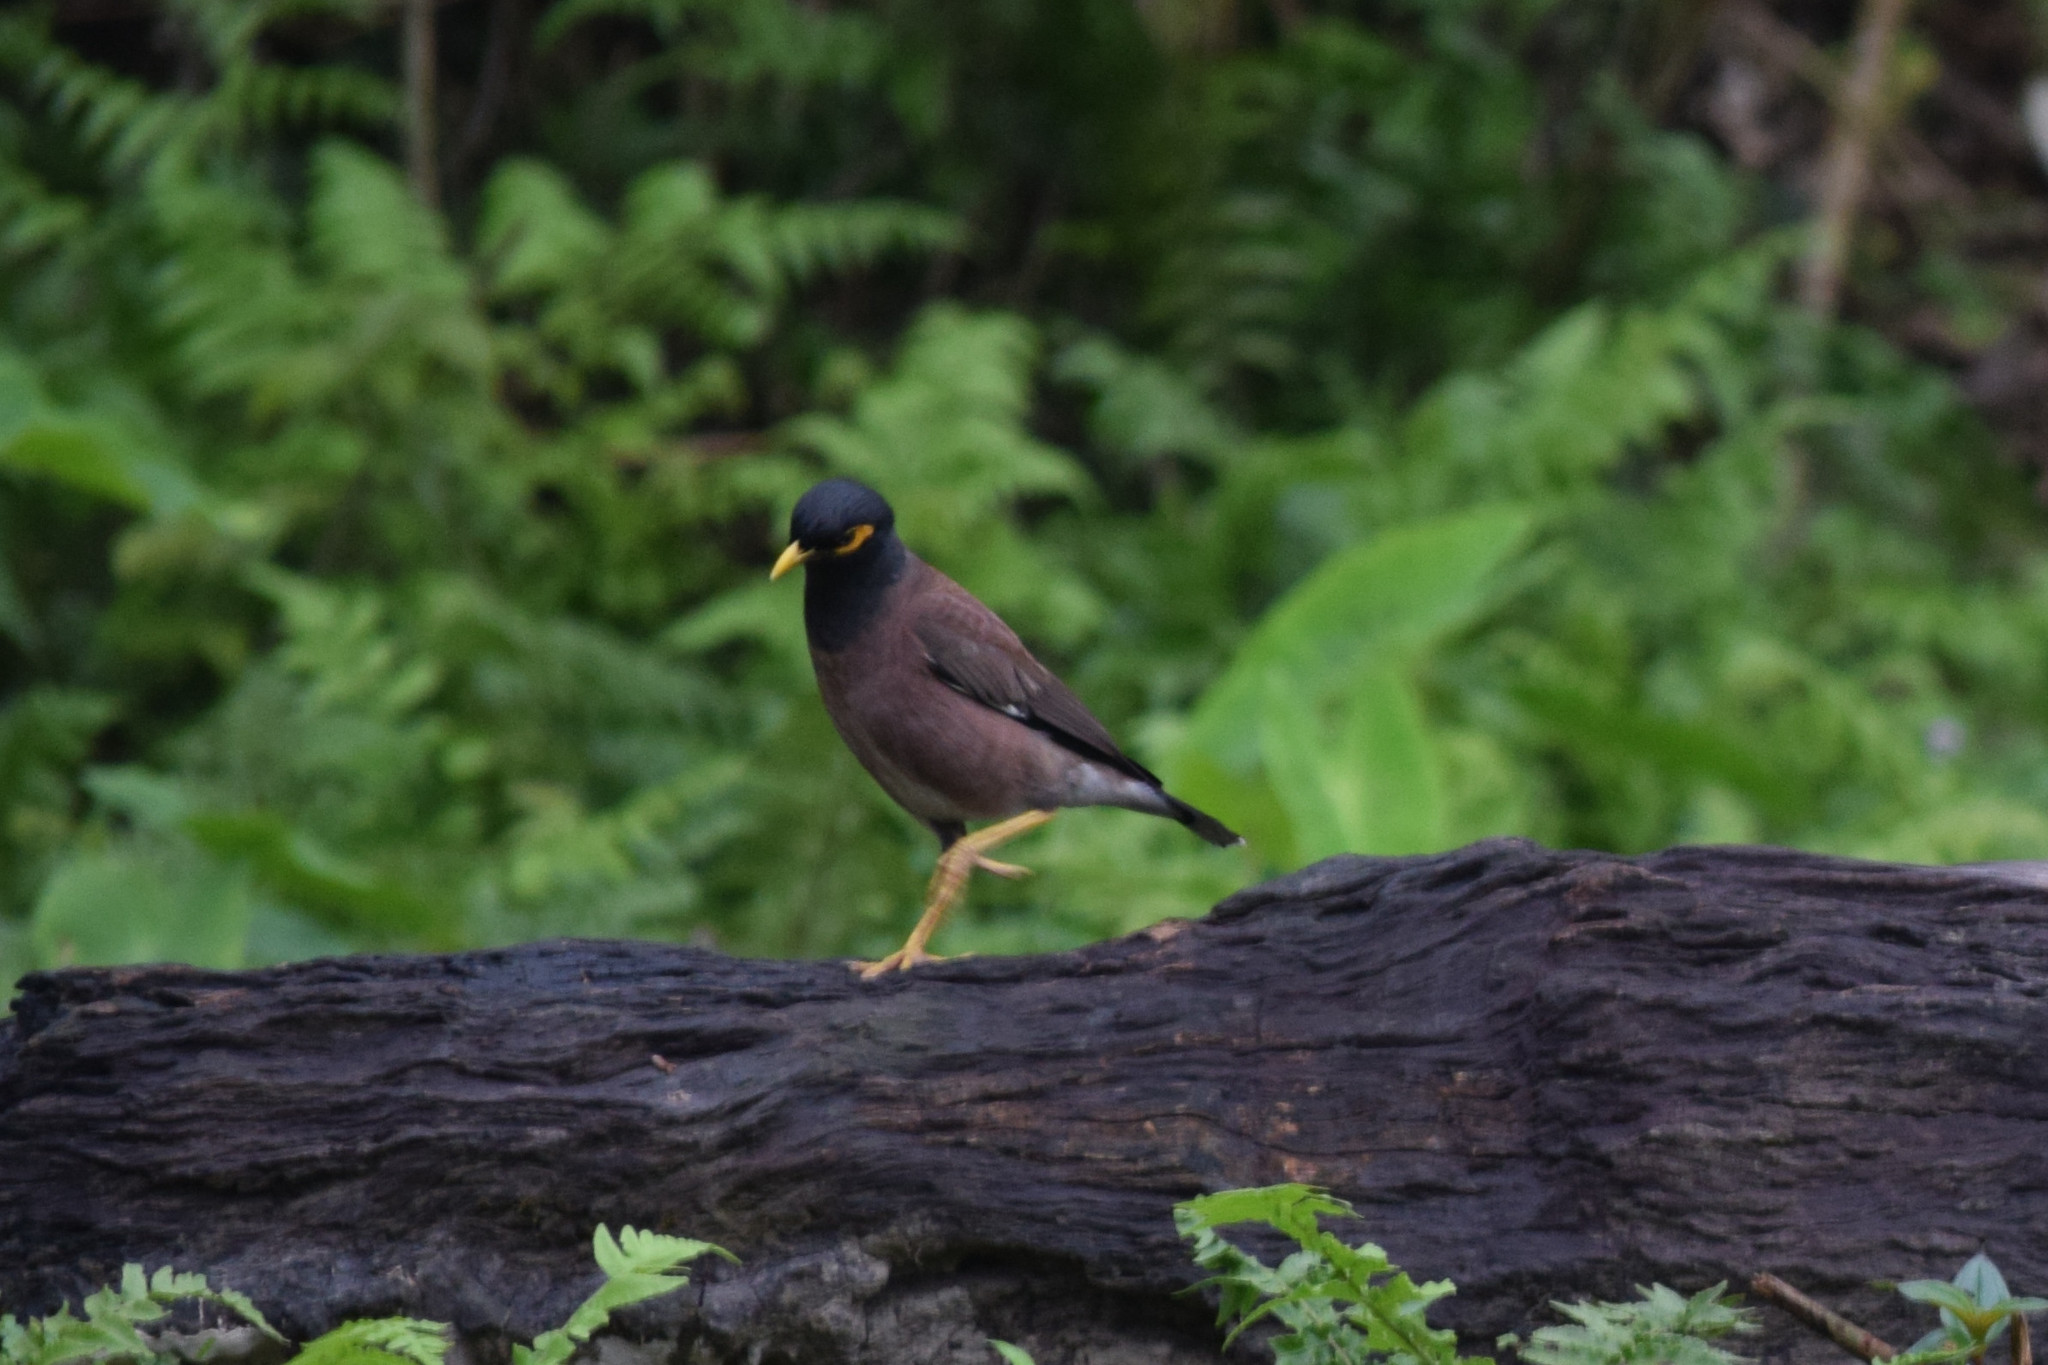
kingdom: Animalia
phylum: Chordata
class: Aves
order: Passeriformes
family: Sturnidae
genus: Acridotheres
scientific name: Acridotheres tristis
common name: Common myna
